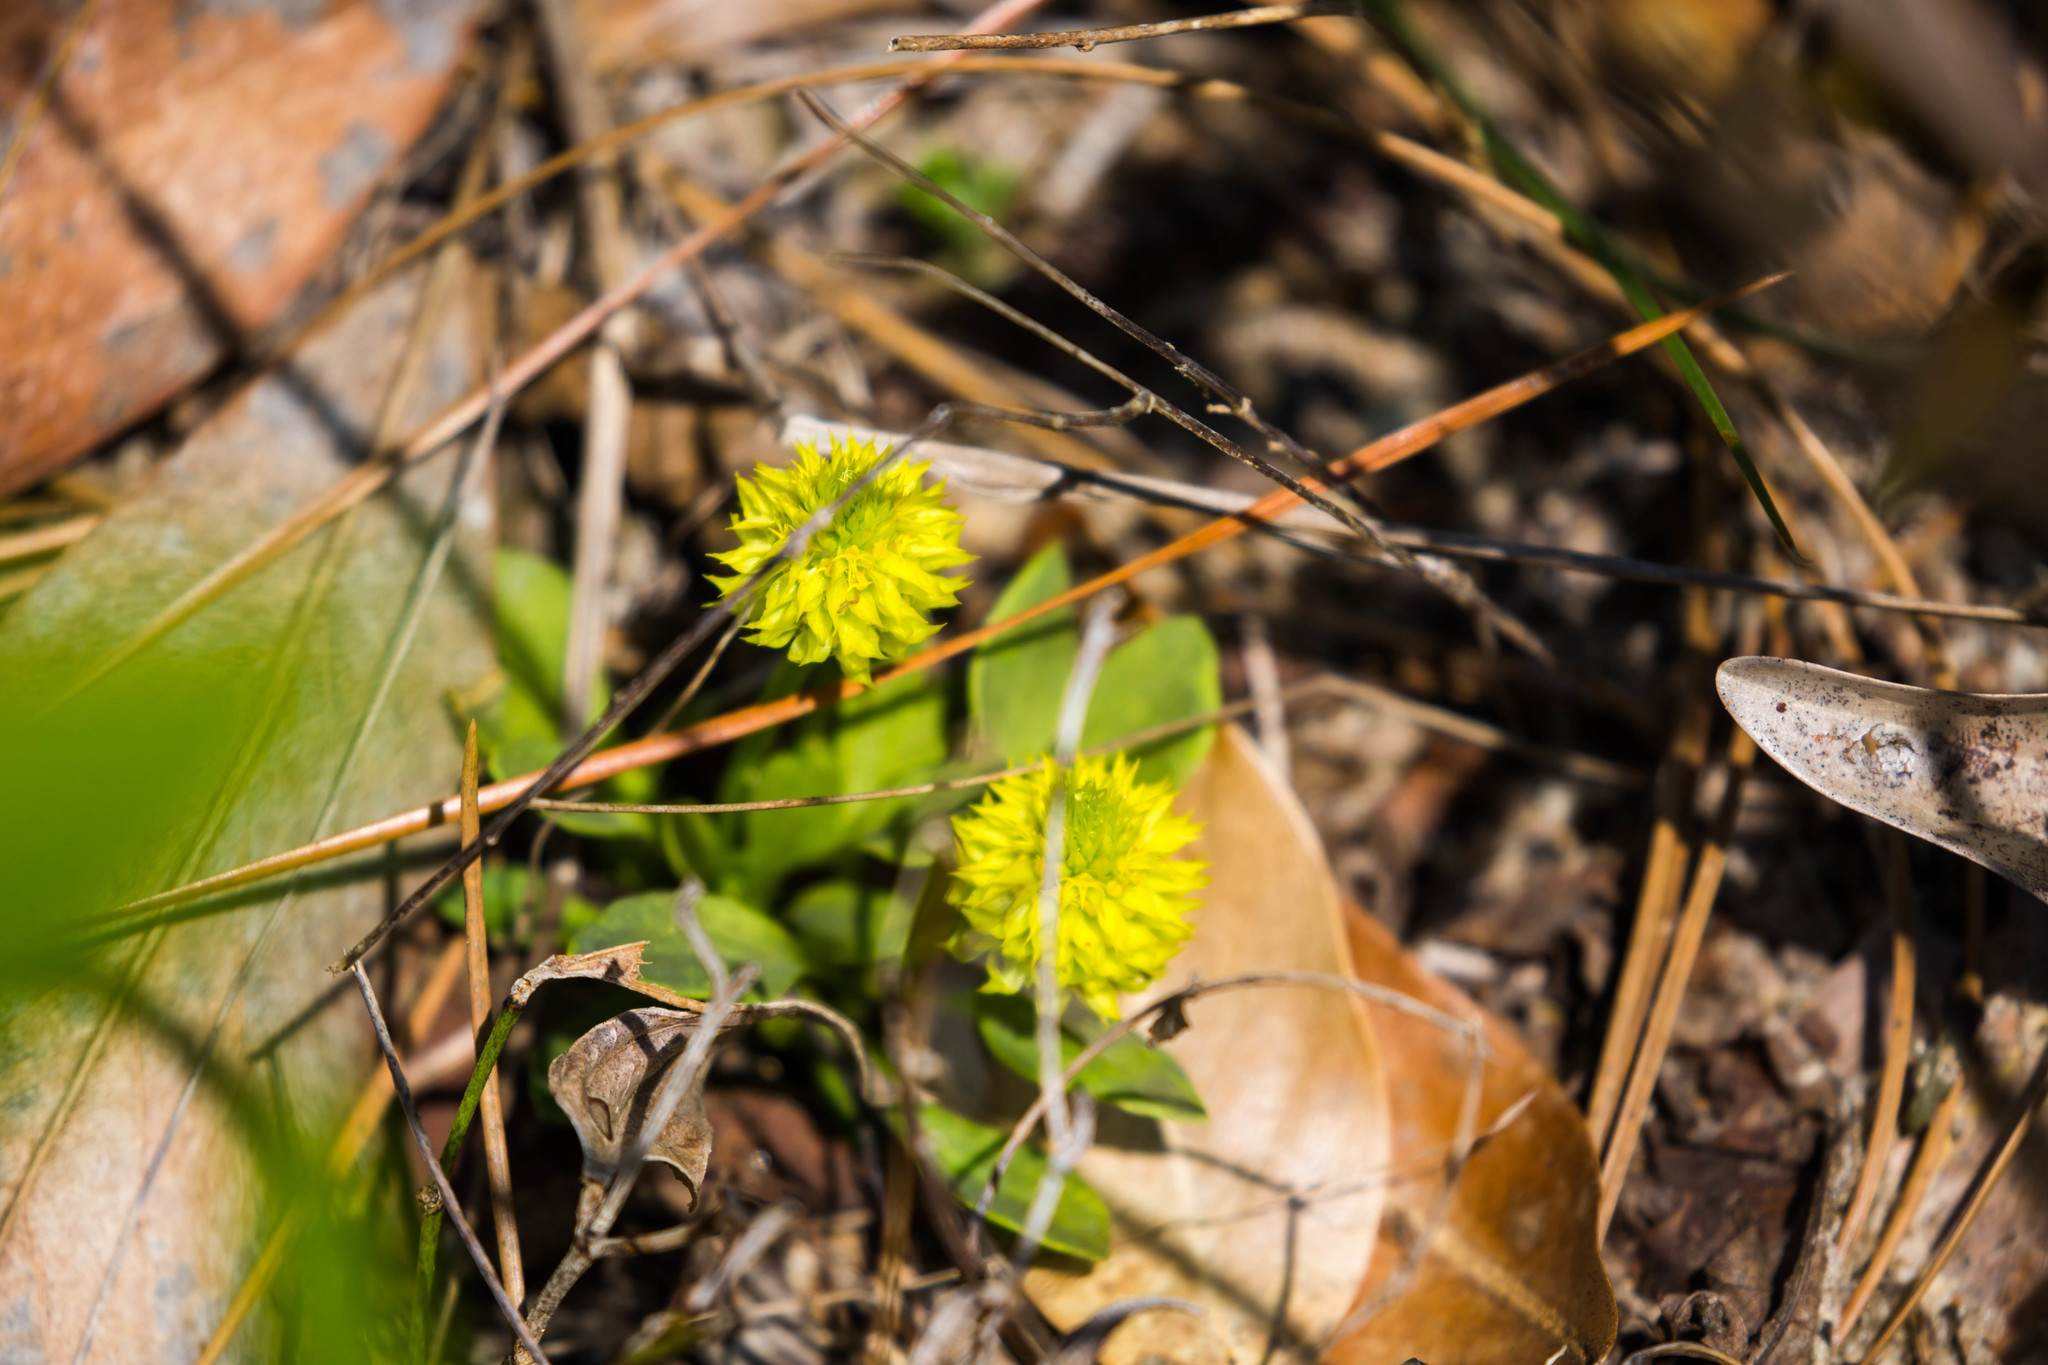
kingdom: Plantae
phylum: Tracheophyta
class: Magnoliopsida
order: Fabales
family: Polygalaceae
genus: Polygala
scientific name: Polygala nana
